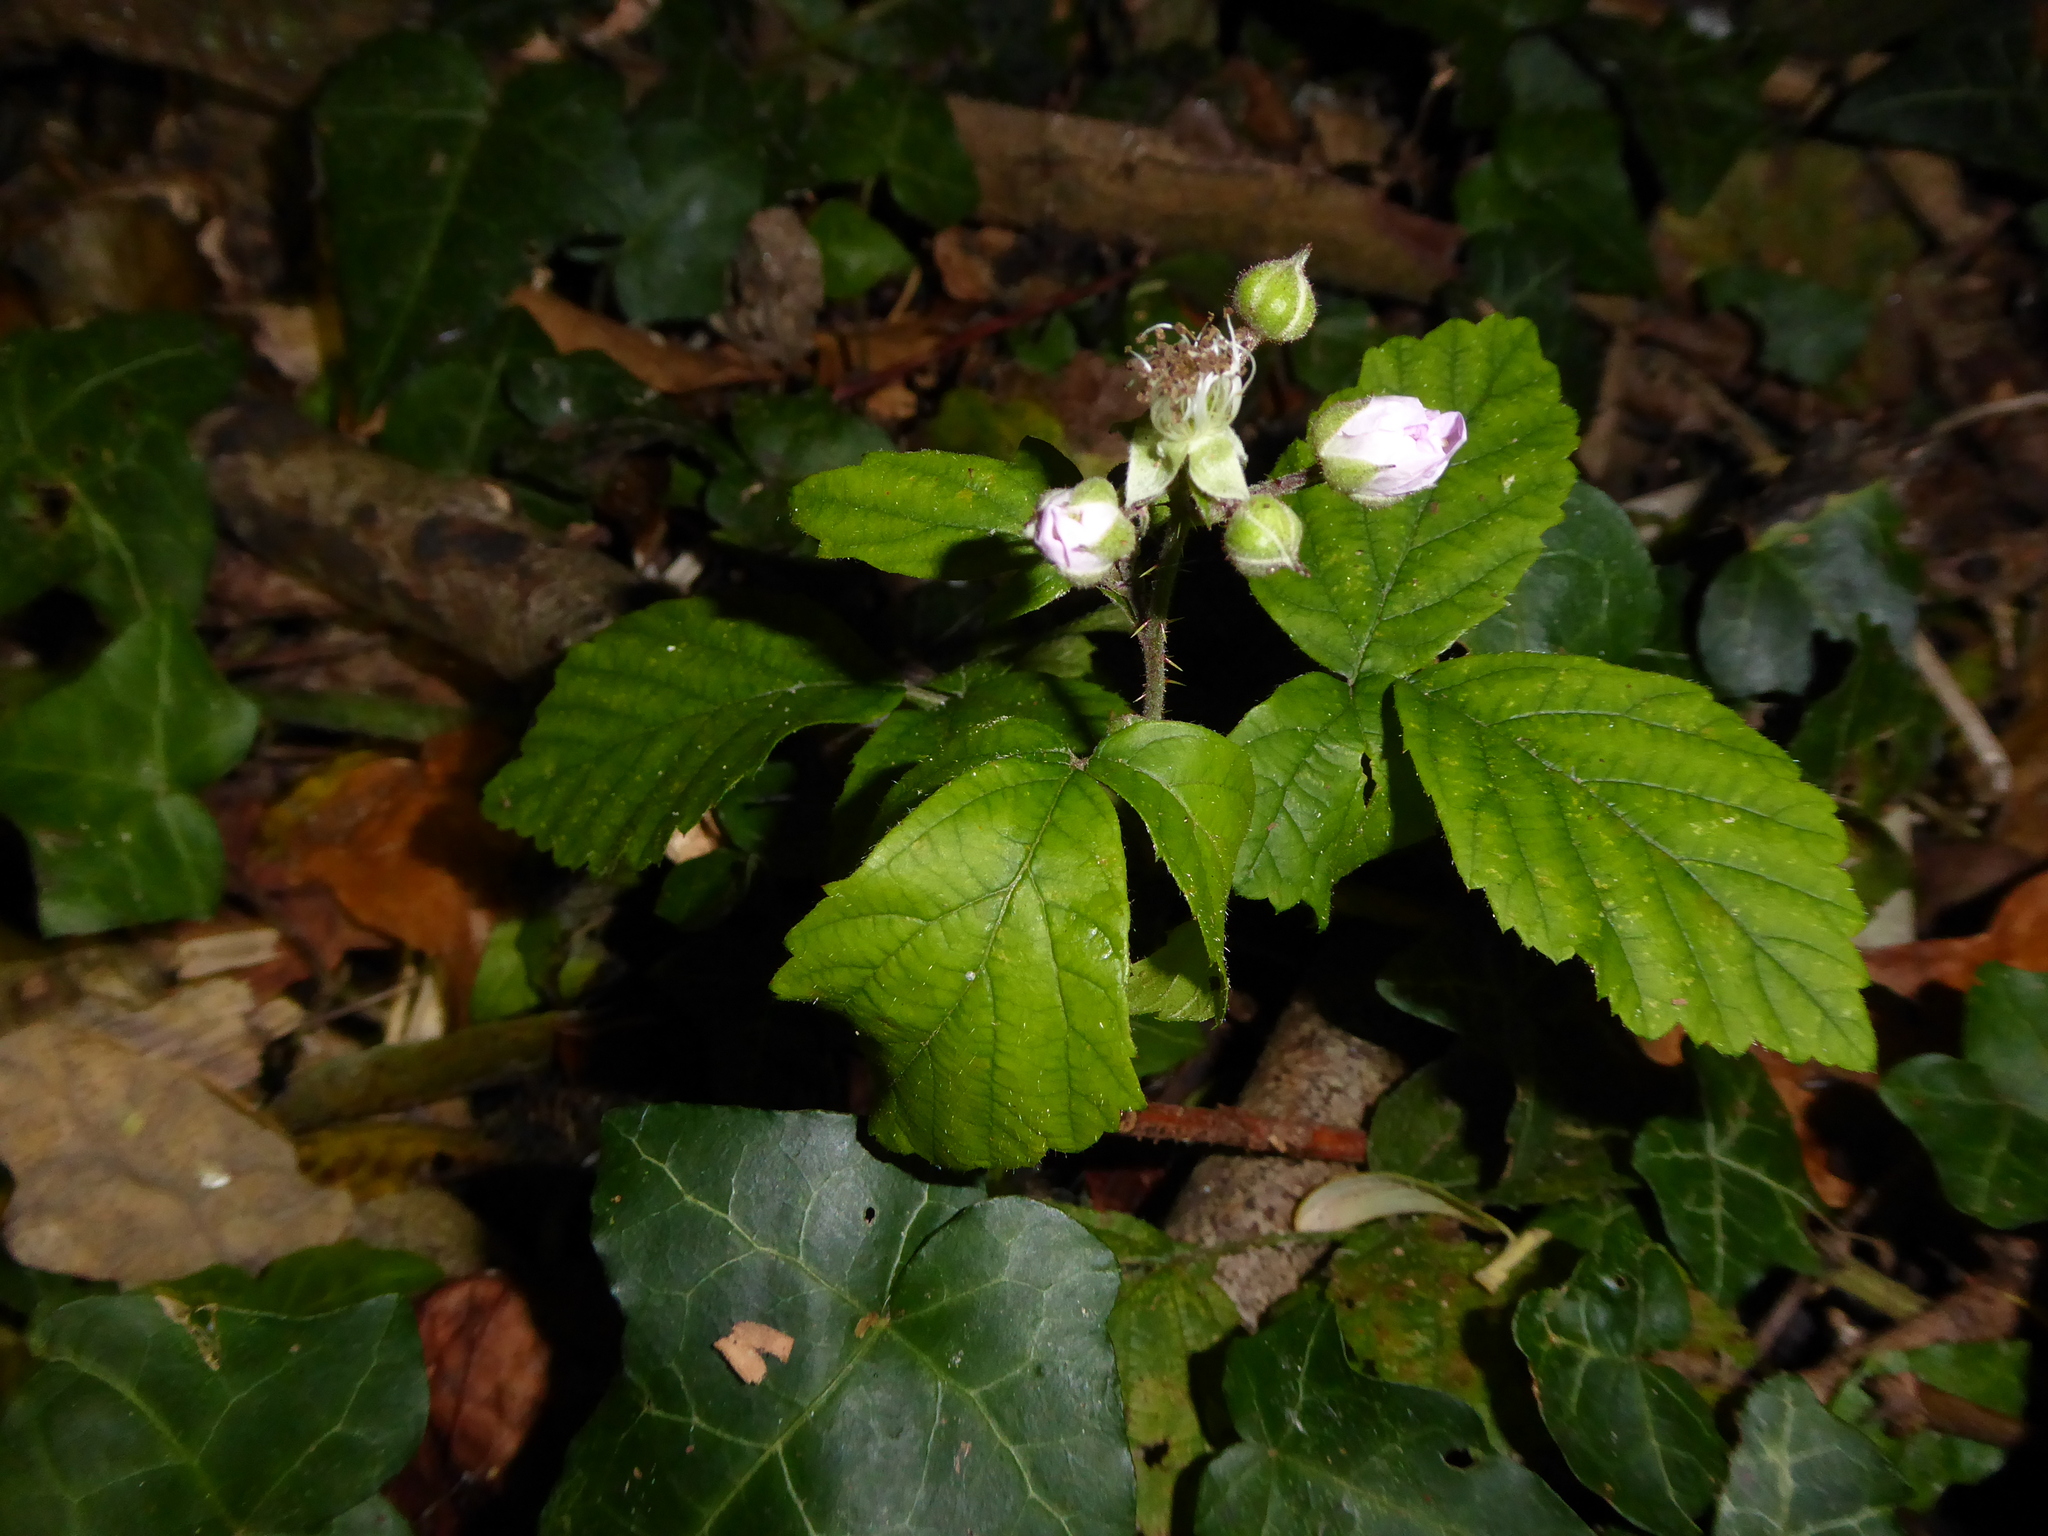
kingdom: Plantae
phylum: Tracheophyta
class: Magnoliopsida
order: Rosales
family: Rosaceae
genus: Rubus
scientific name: Rubus
